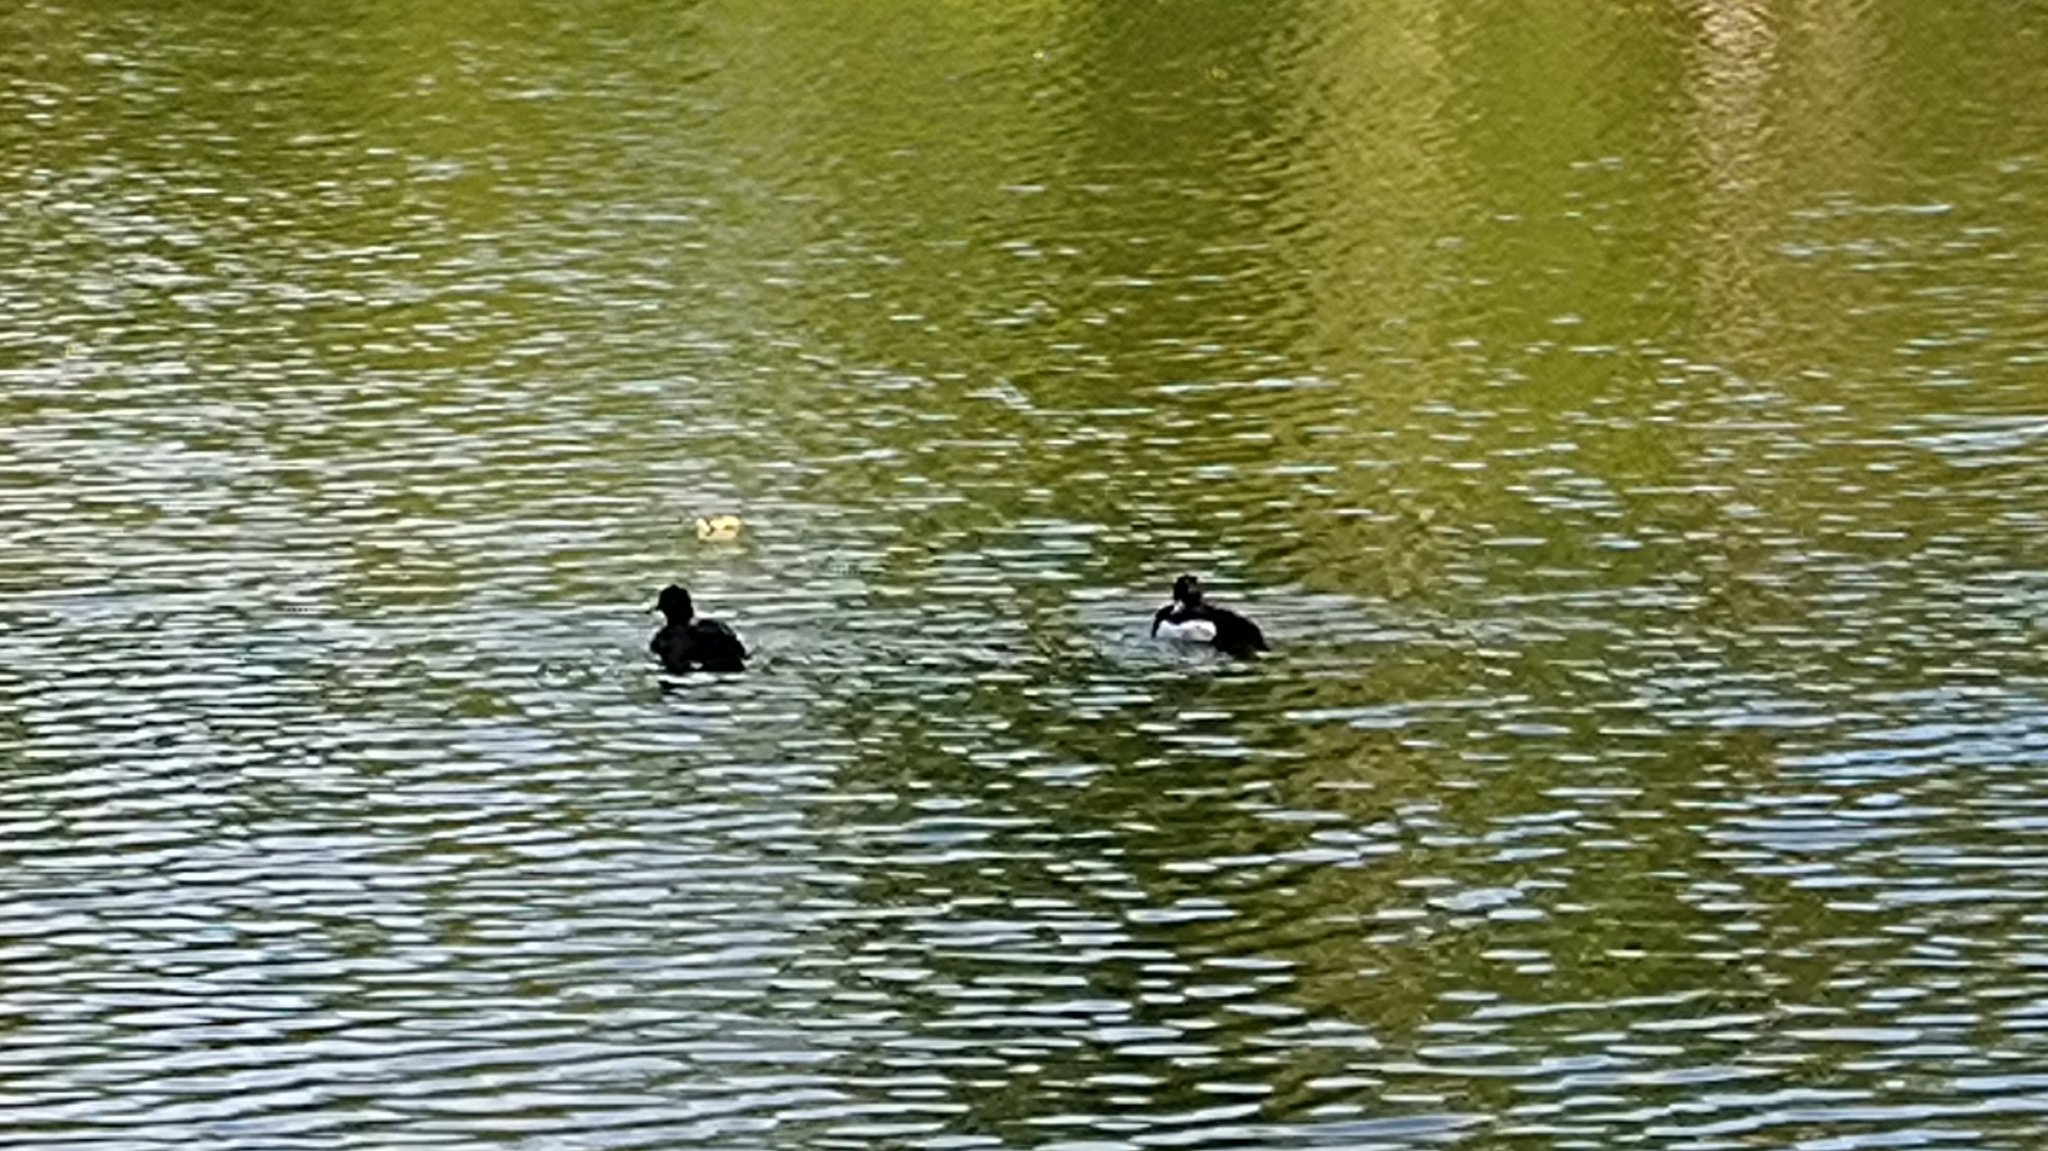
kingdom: Animalia
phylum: Chordata
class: Aves
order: Anseriformes
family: Anatidae
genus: Aythya
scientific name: Aythya fuligula
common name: Tufted duck
